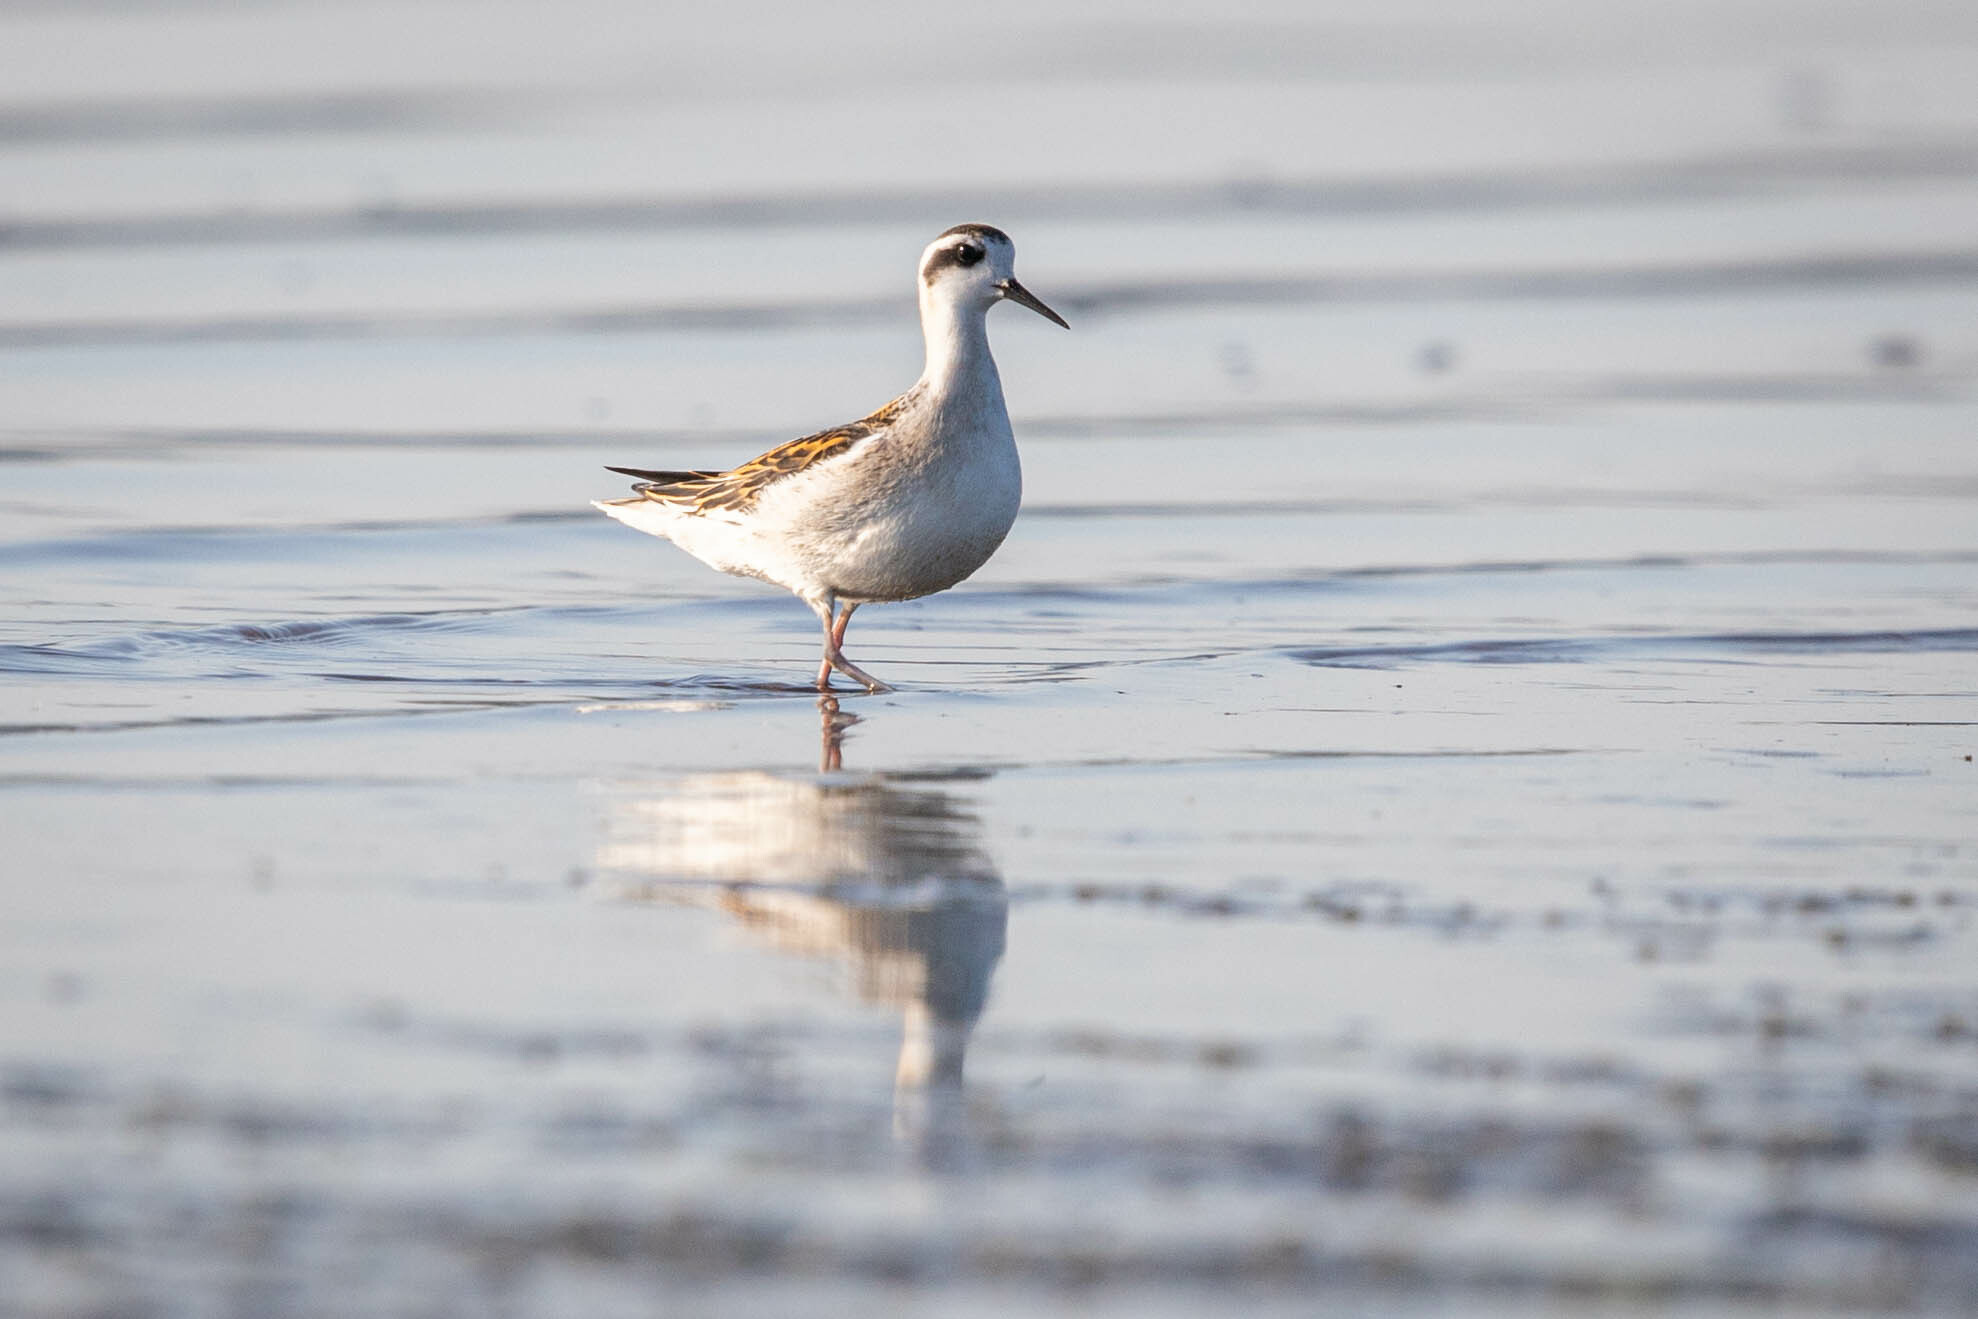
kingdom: Animalia
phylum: Chordata
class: Aves
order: Charadriiformes
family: Scolopacidae
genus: Phalaropus
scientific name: Phalaropus lobatus
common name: Red-necked phalarope
